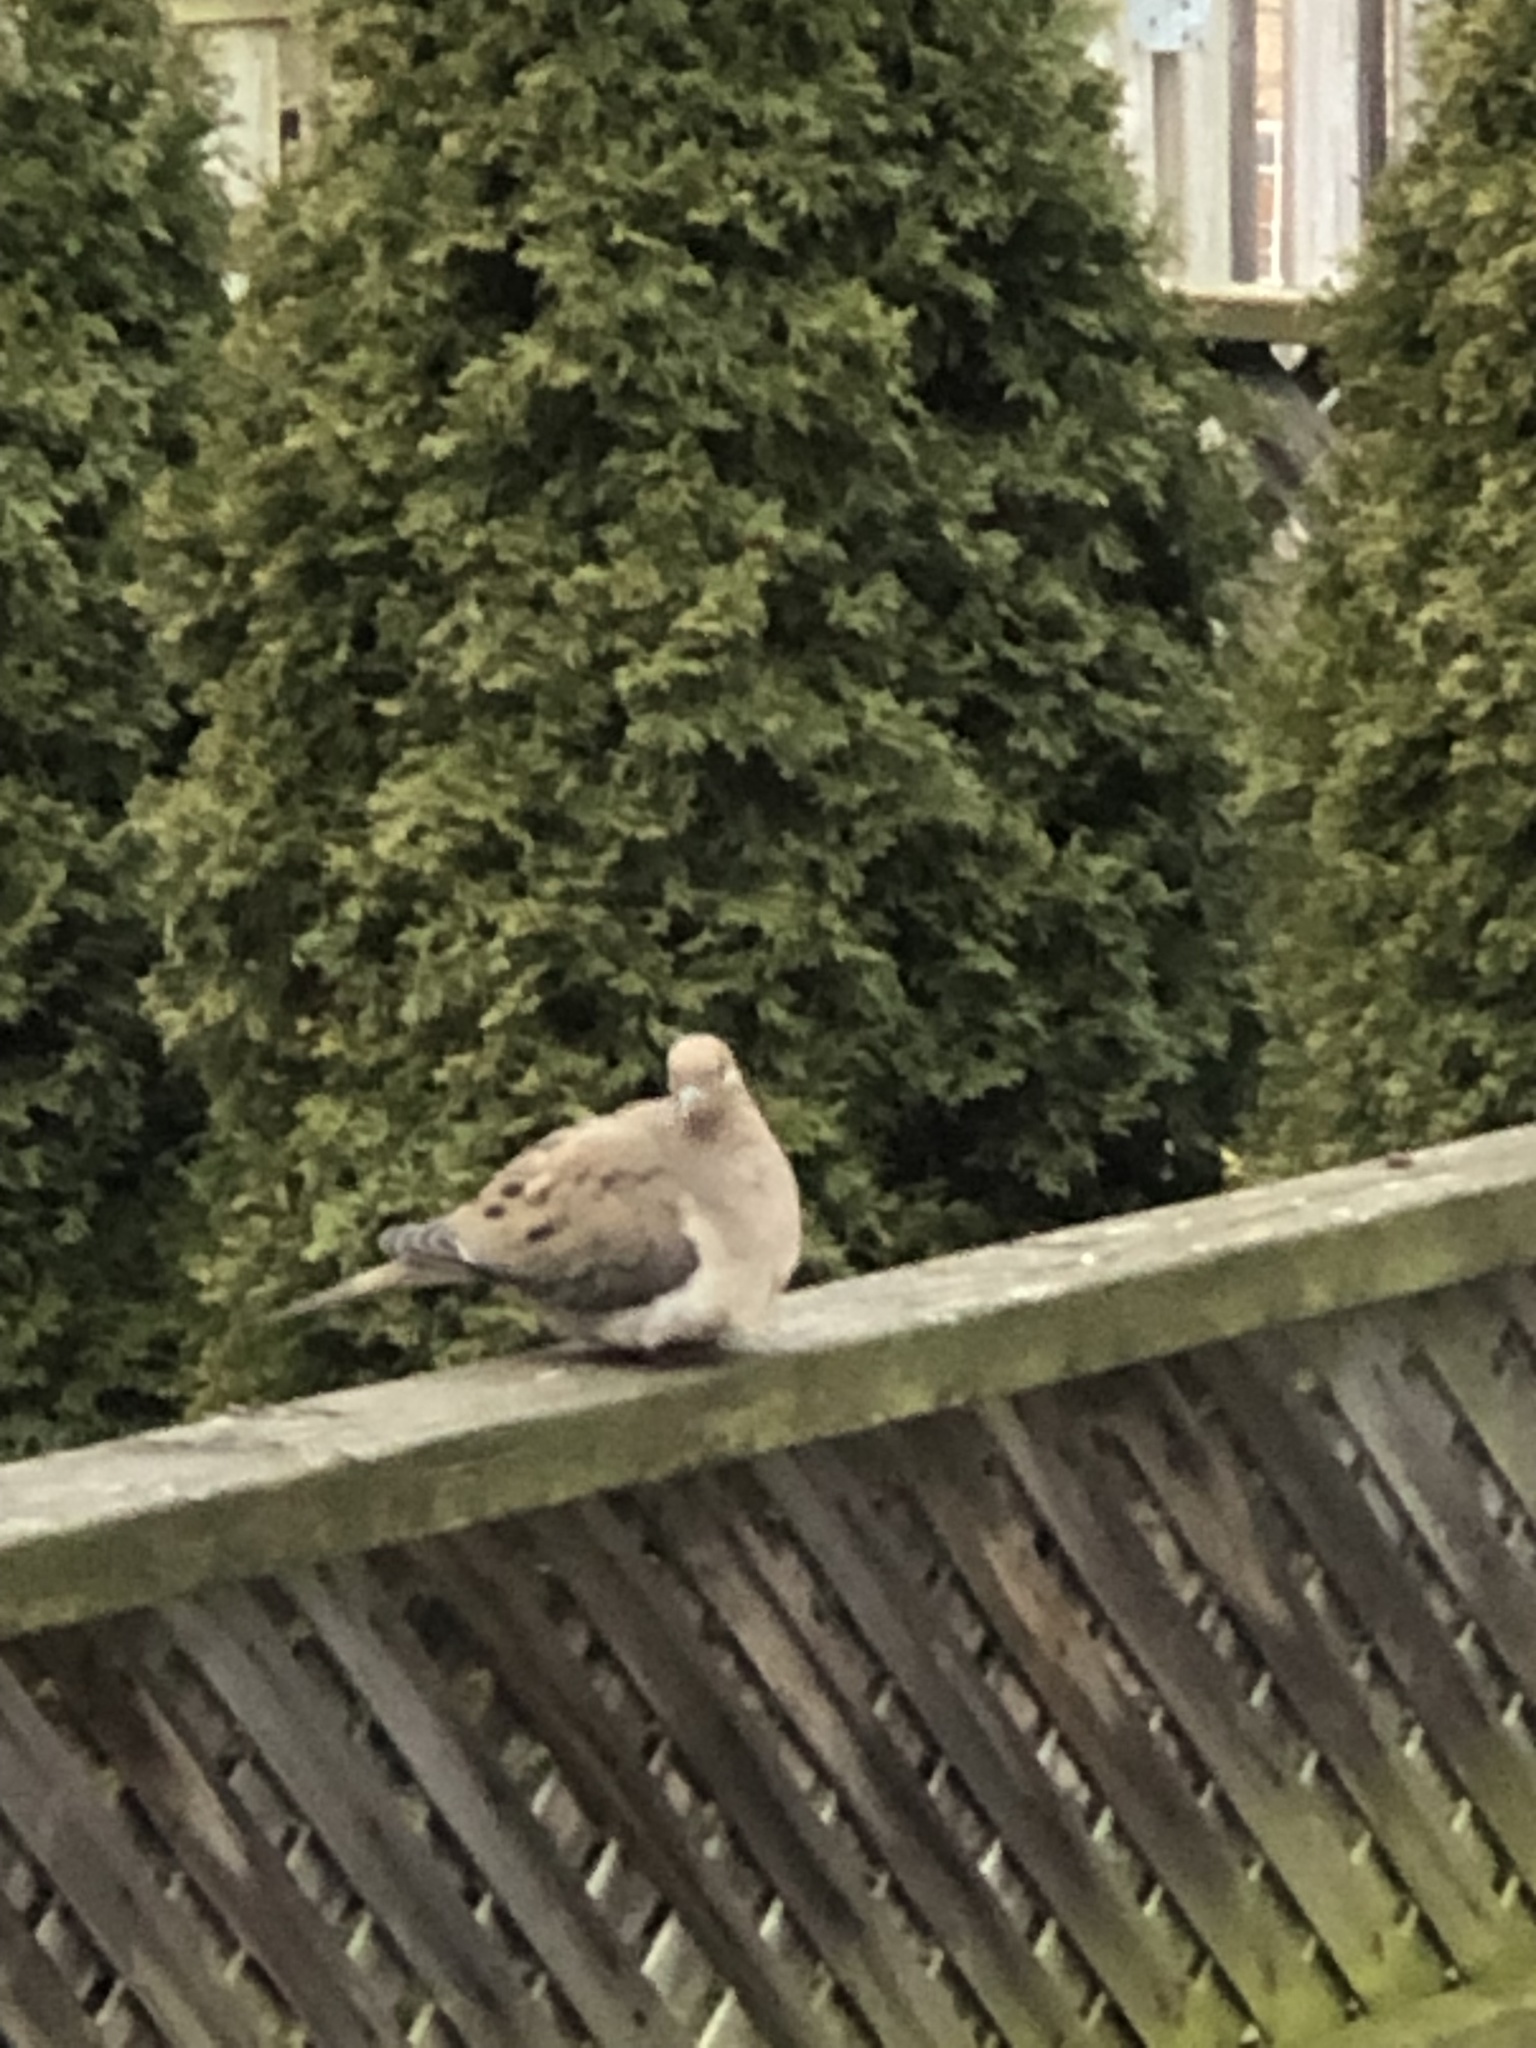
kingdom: Animalia
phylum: Chordata
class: Aves
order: Columbiformes
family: Columbidae
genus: Zenaida
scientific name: Zenaida macroura
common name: Mourning dove
